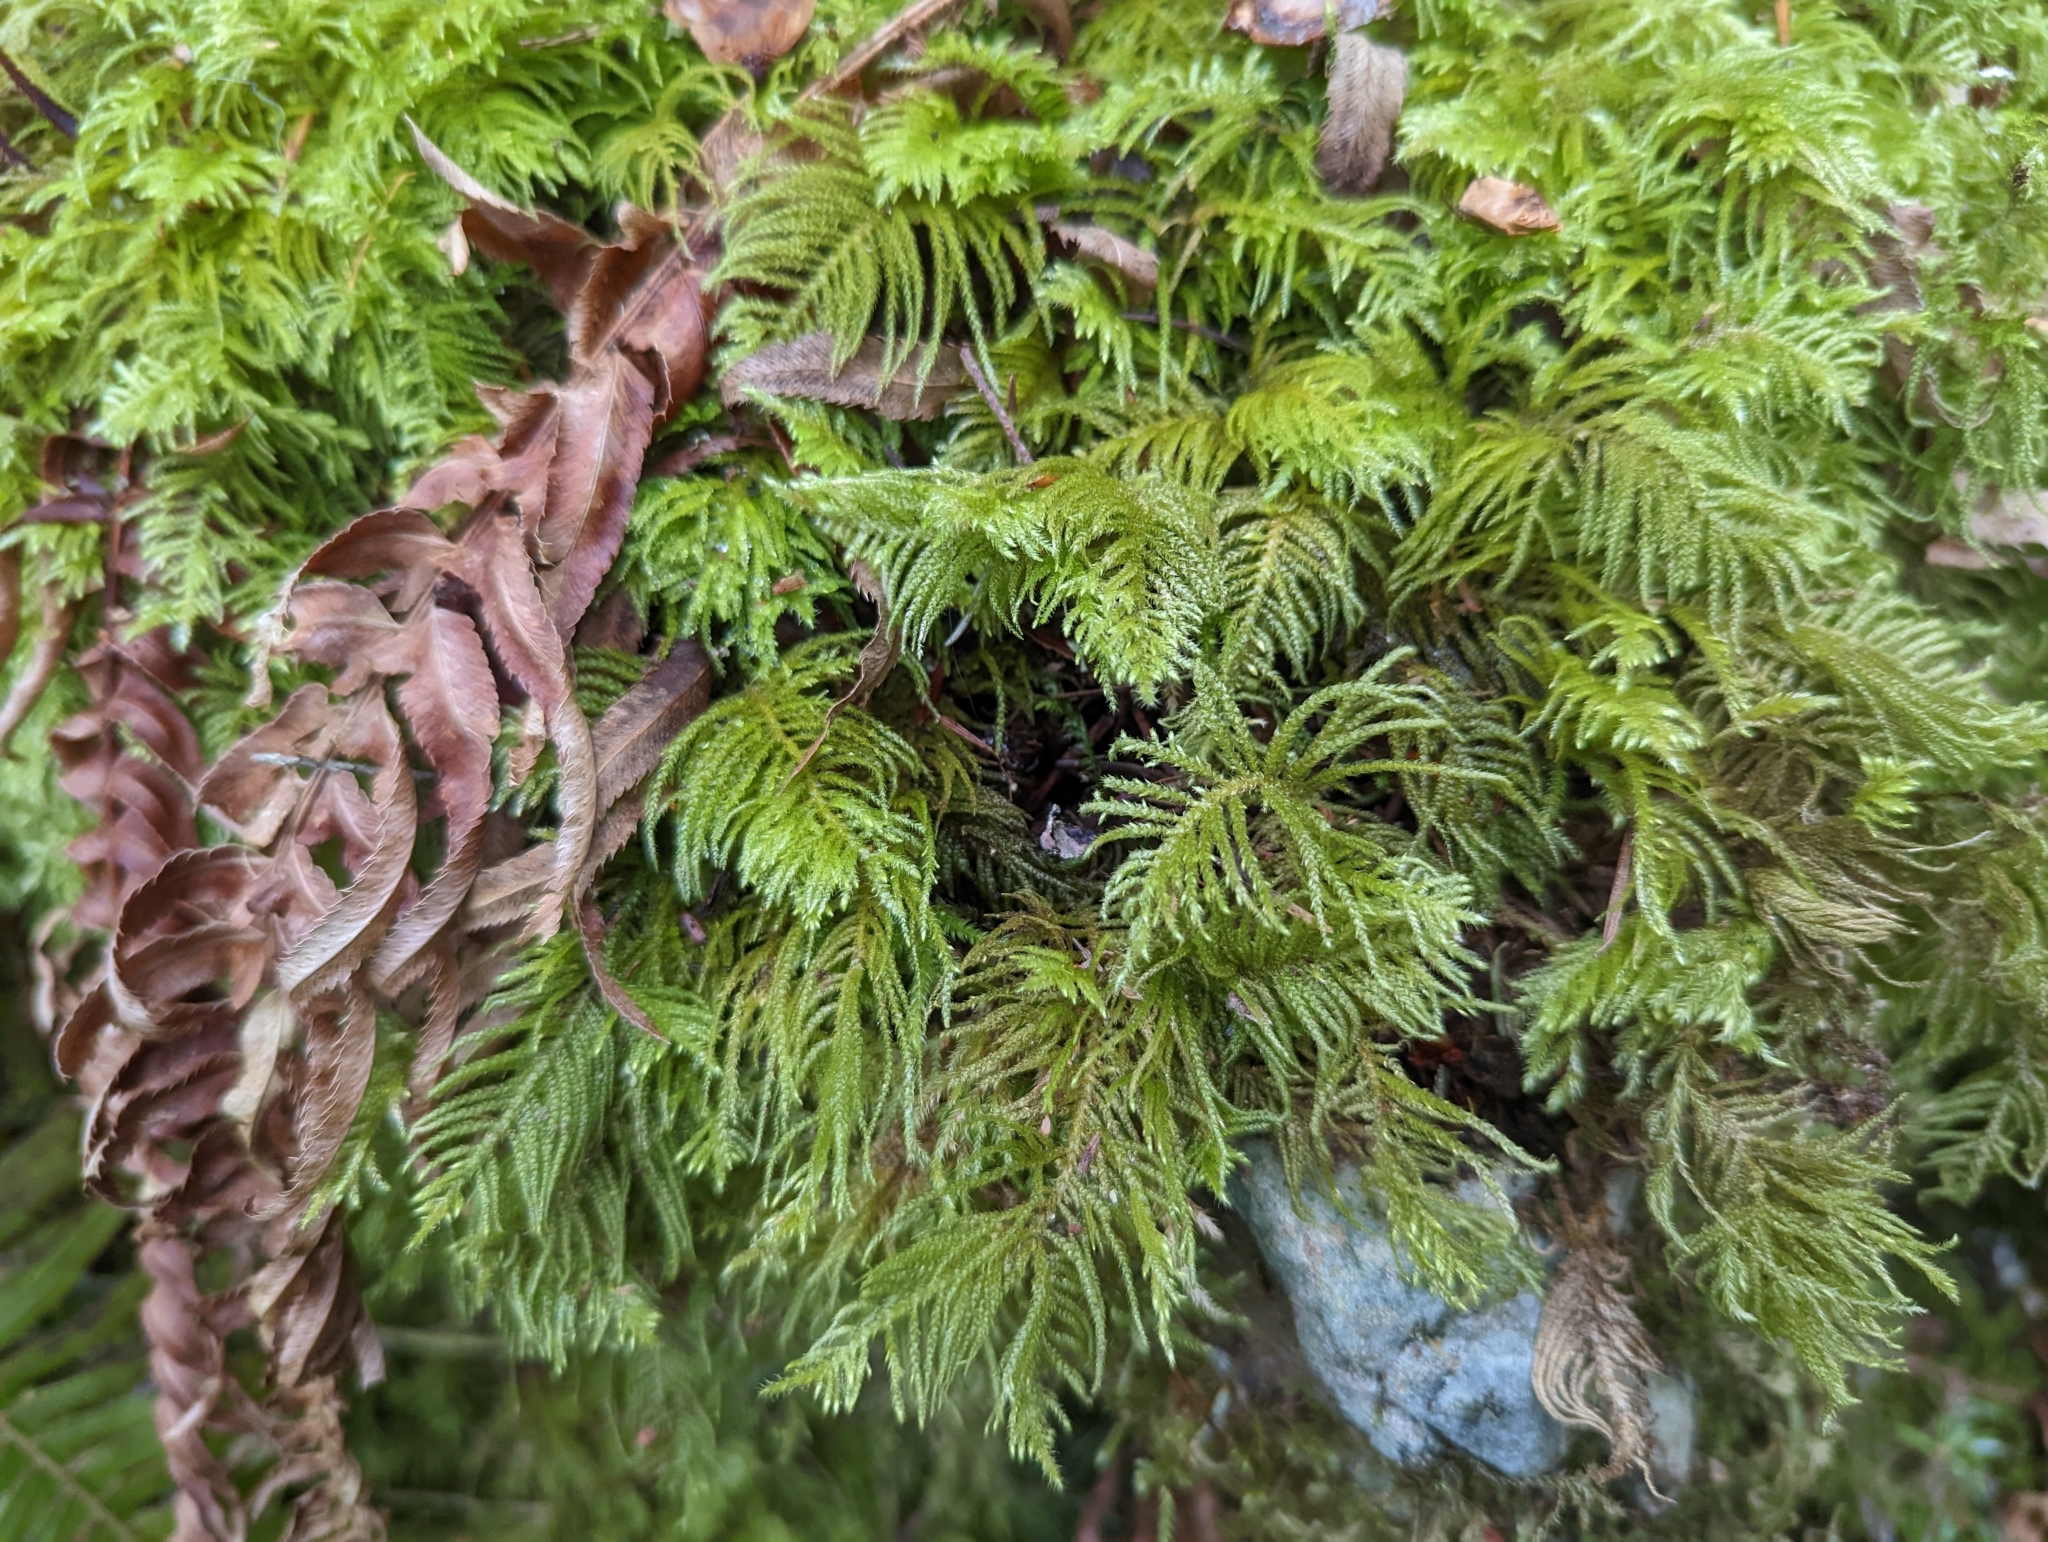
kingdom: Plantae
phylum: Bryophyta
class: Bryopsida
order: Hypnales
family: Brachytheciaceae
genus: Kindbergia
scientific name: Kindbergia oregana
